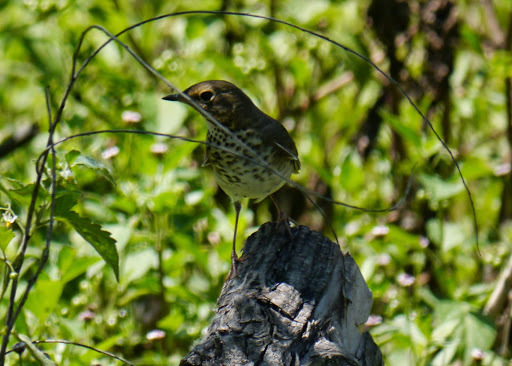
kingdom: Animalia
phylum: Chordata
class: Aves
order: Passeriformes
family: Turdidae
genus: Catharus
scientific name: Catharus ustulatus
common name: Swainson's thrush
